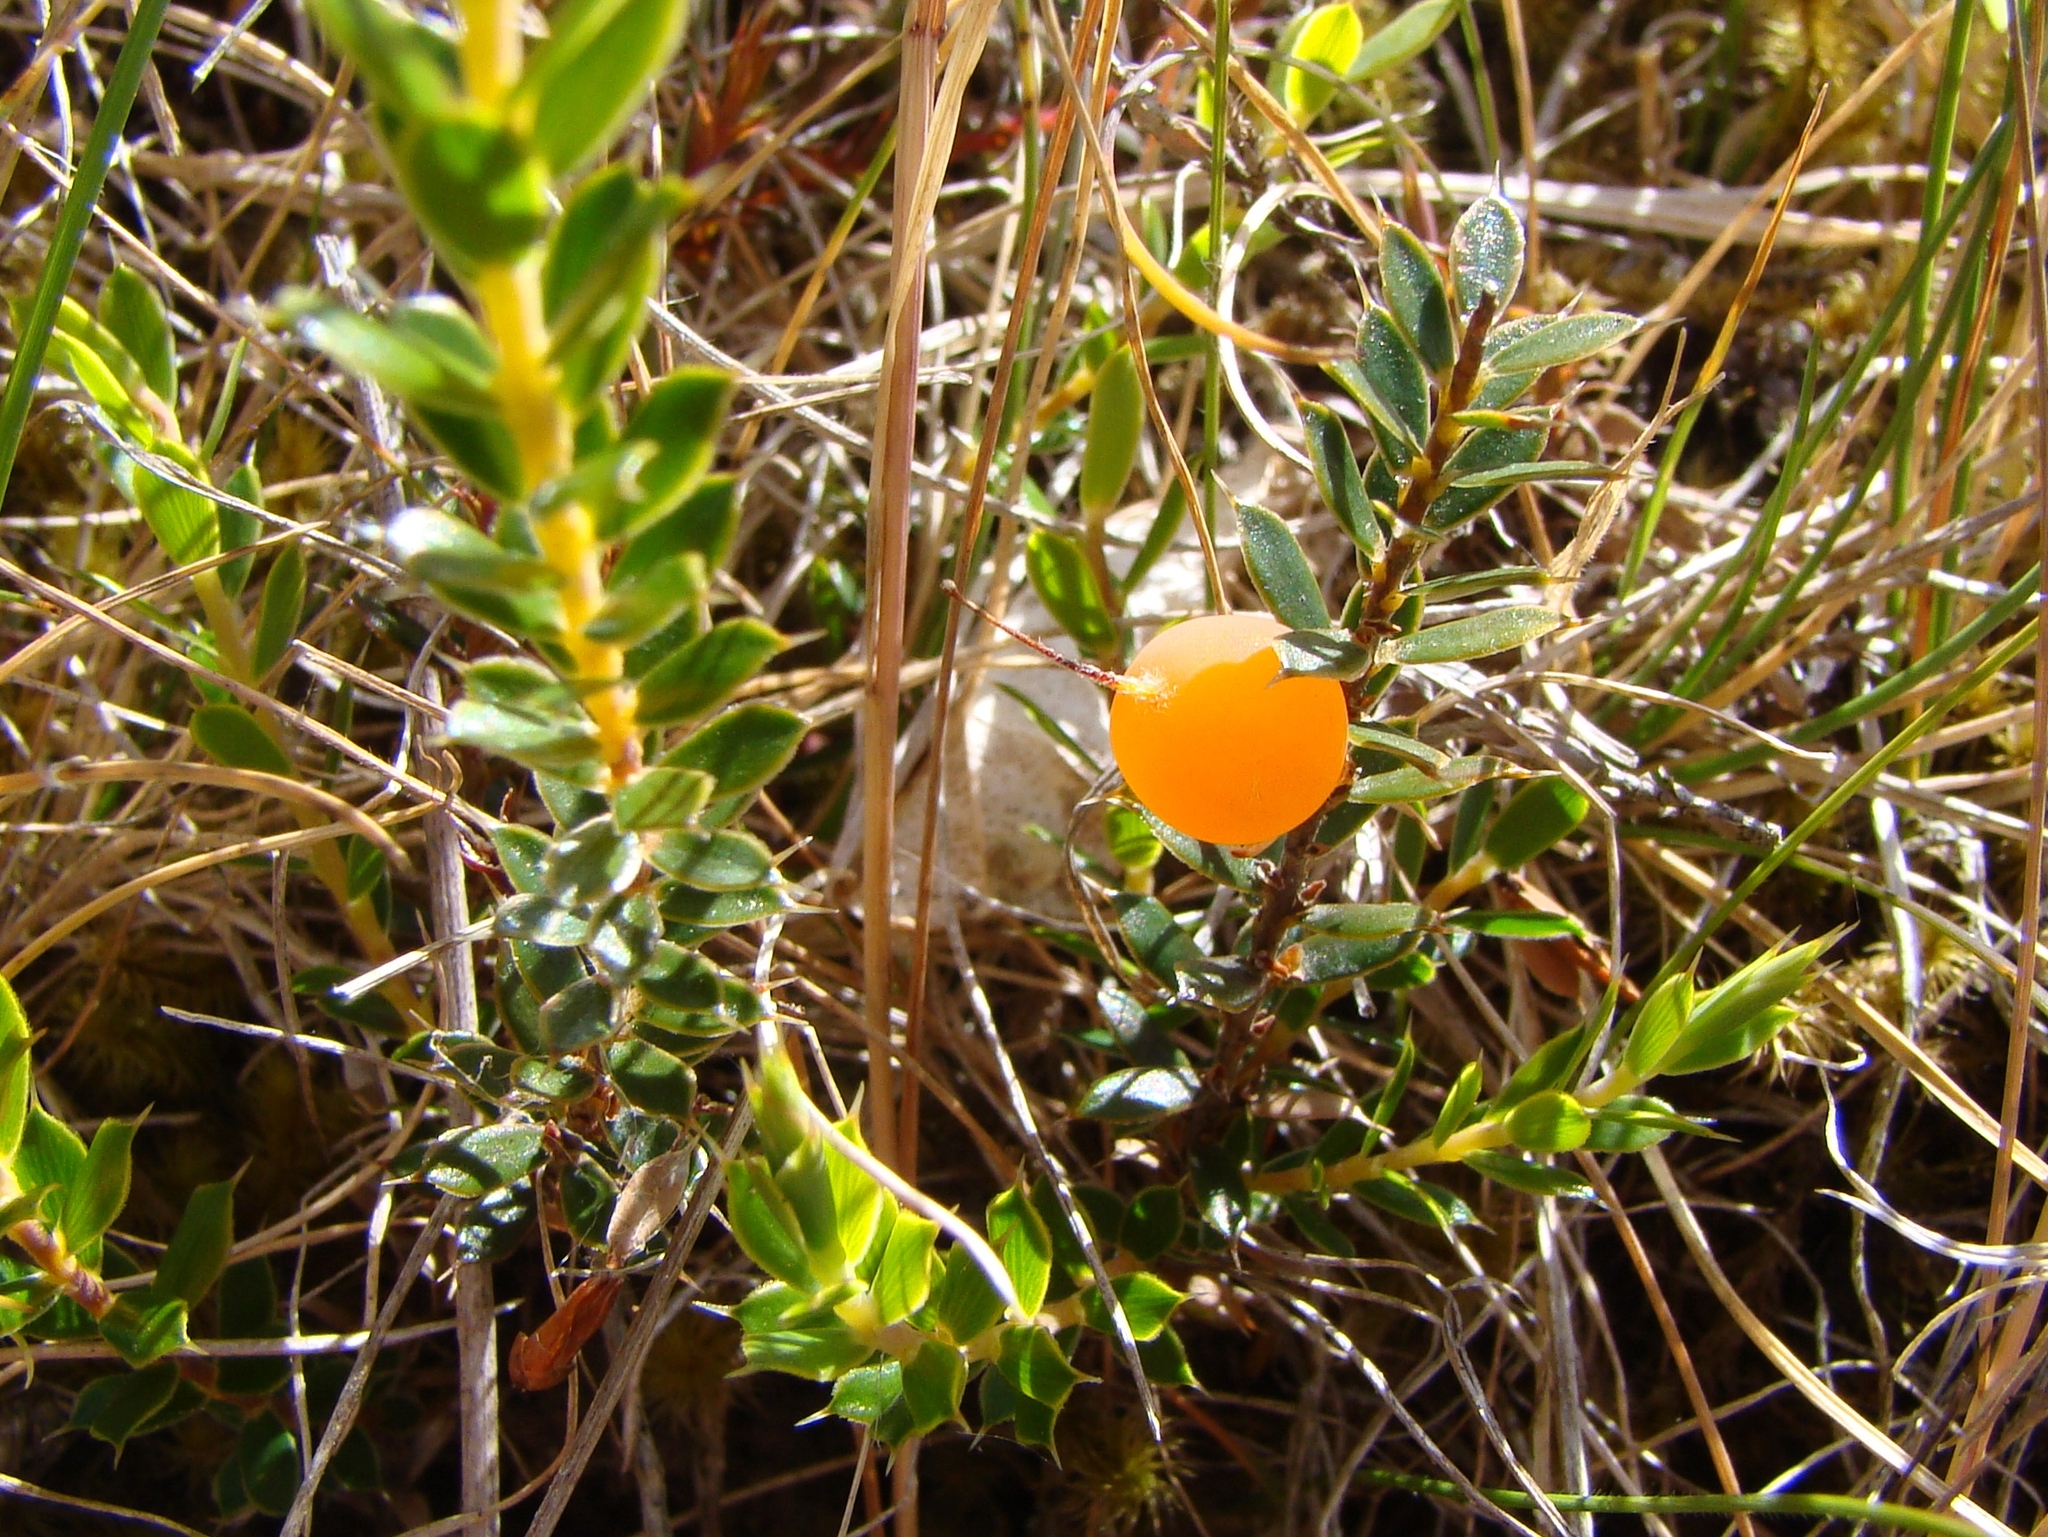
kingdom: Plantae
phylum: Tracheophyta
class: Magnoliopsida
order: Ericales
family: Ericaceae
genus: Styphelia
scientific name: Styphelia nesophila
